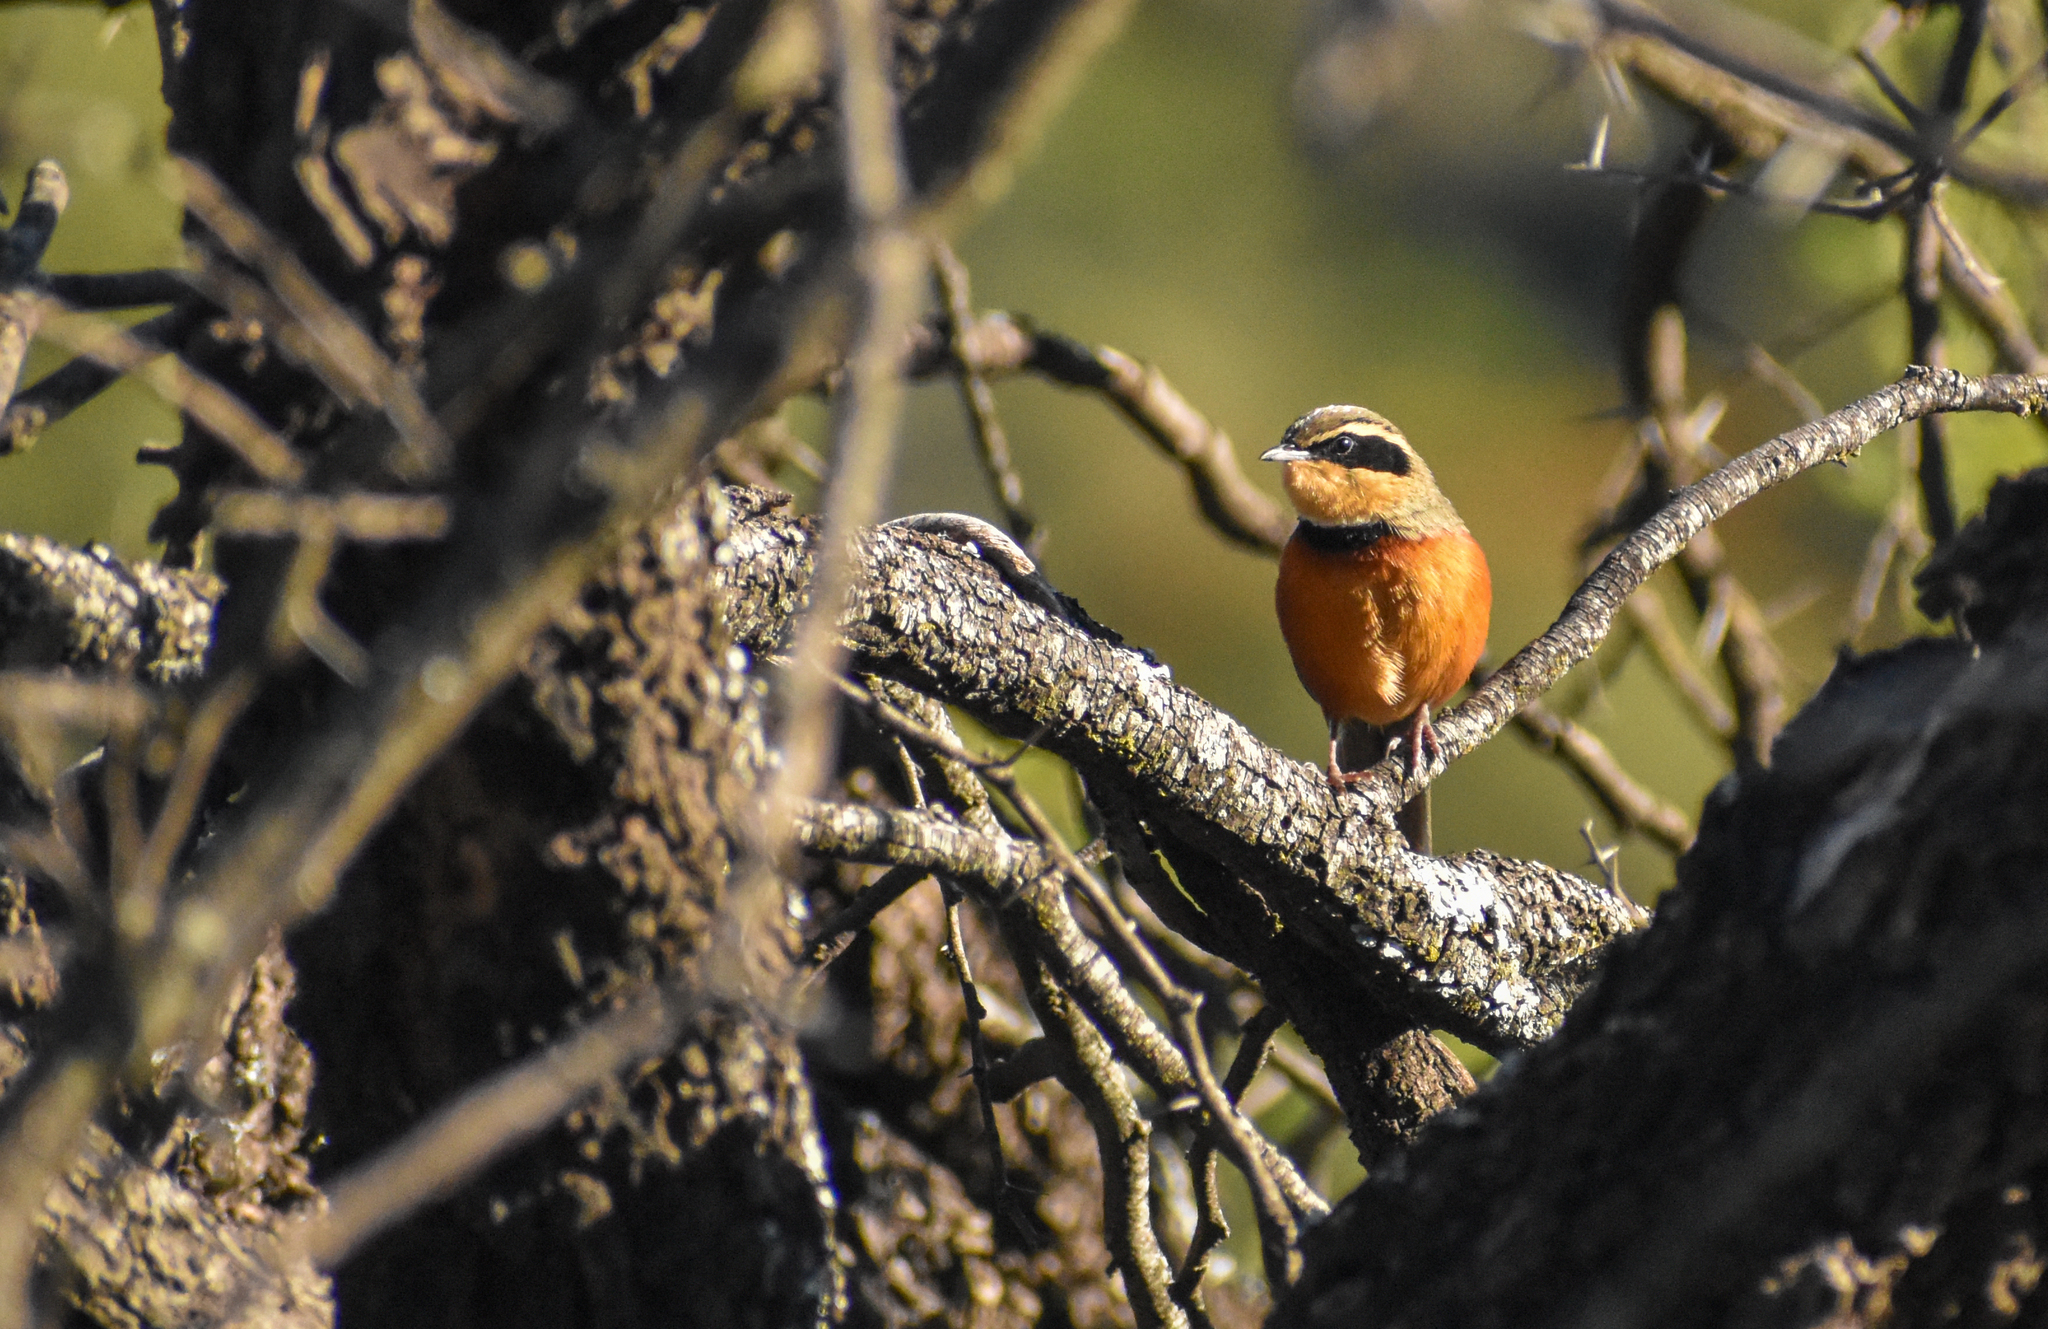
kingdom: Animalia
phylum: Chordata
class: Aves
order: Passeriformes
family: Melanopareiidae
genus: Melanopareia
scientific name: Melanopareia maximiliani
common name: Olive-crowned crescentchest
